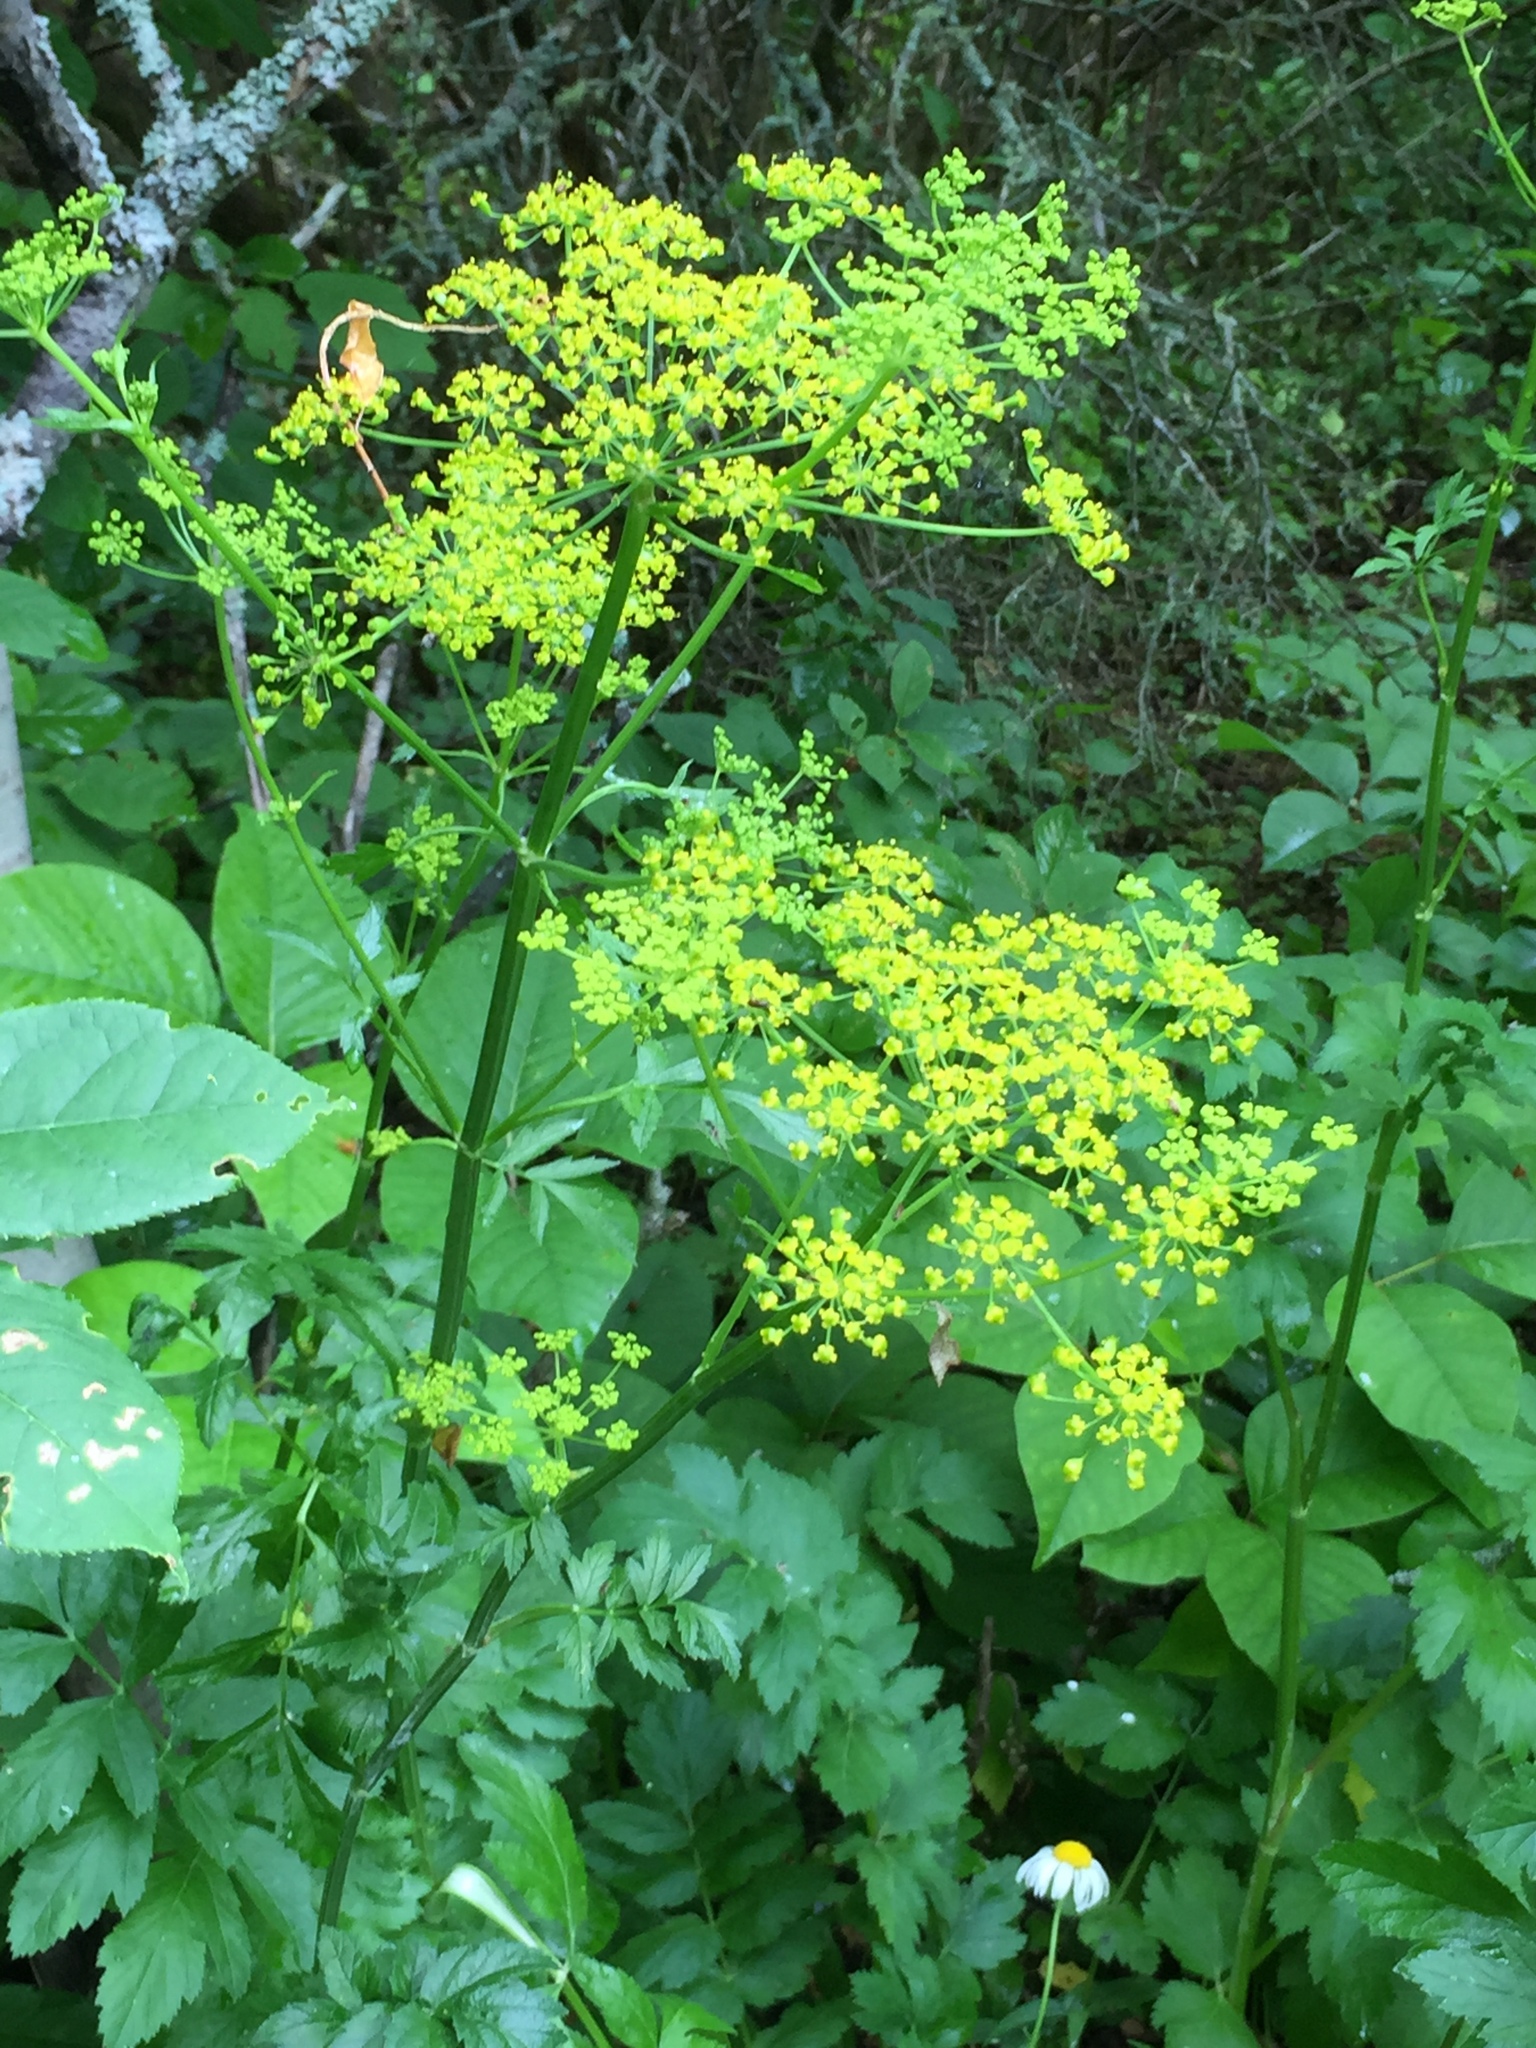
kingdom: Plantae
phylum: Tracheophyta
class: Magnoliopsida
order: Apiales
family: Apiaceae
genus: Pastinaca
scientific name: Pastinaca sativa
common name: Wild parsnip
